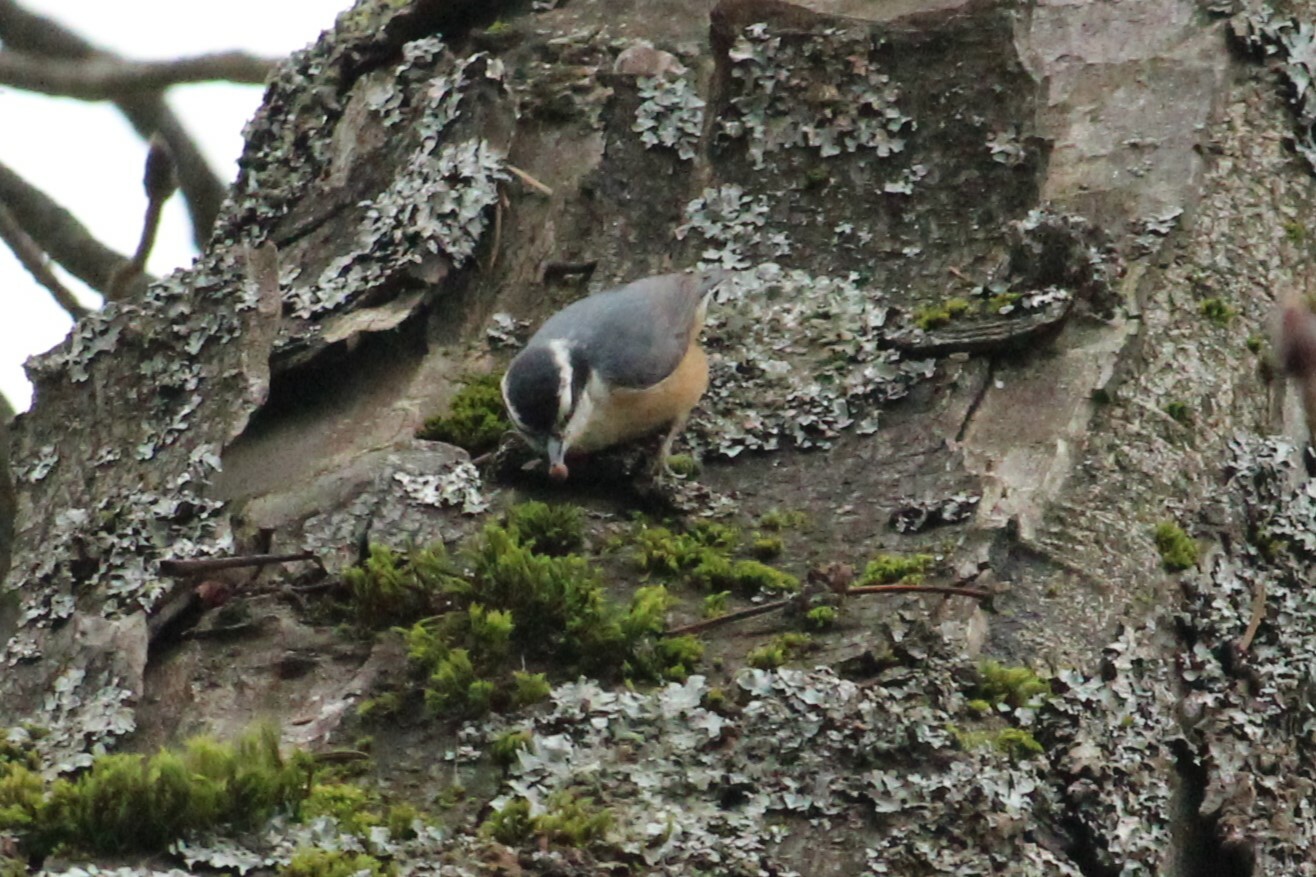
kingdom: Animalia
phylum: Chordata
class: Aves
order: Passeriformes
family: Sittidae
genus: Sitta
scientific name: Sitta canadensis
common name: Red-breasted nuthatch
